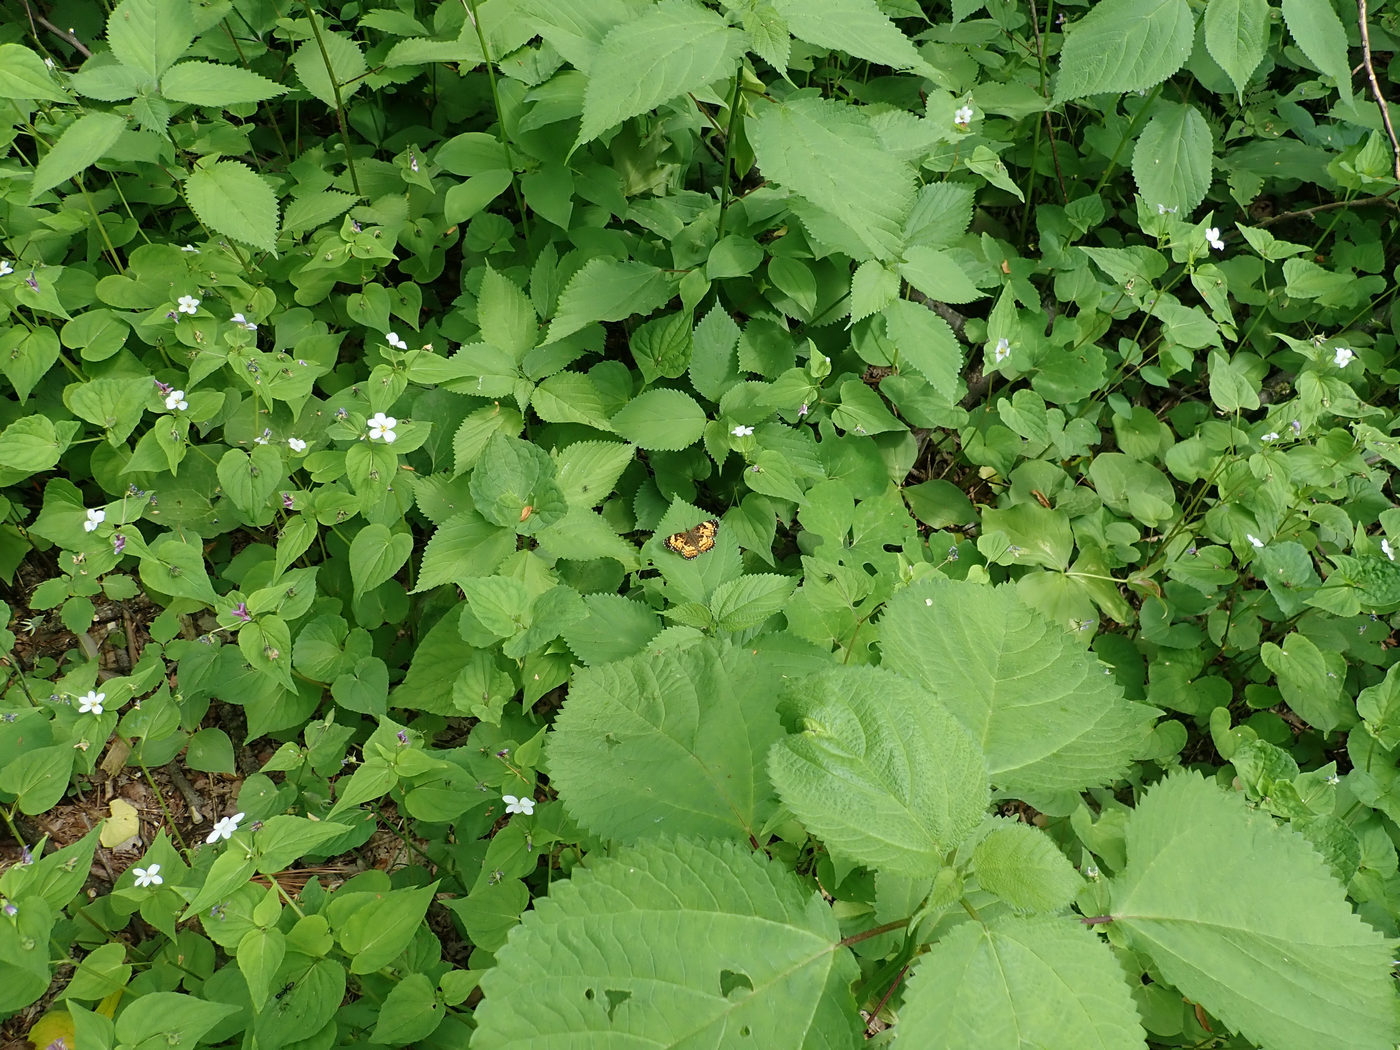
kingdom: Animalia
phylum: Arthropoda
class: Insecta
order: Lepidoptera
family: Nymphalidae
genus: Chlosyne
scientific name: Chlosyne nycteis
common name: Silvery checkerspot
